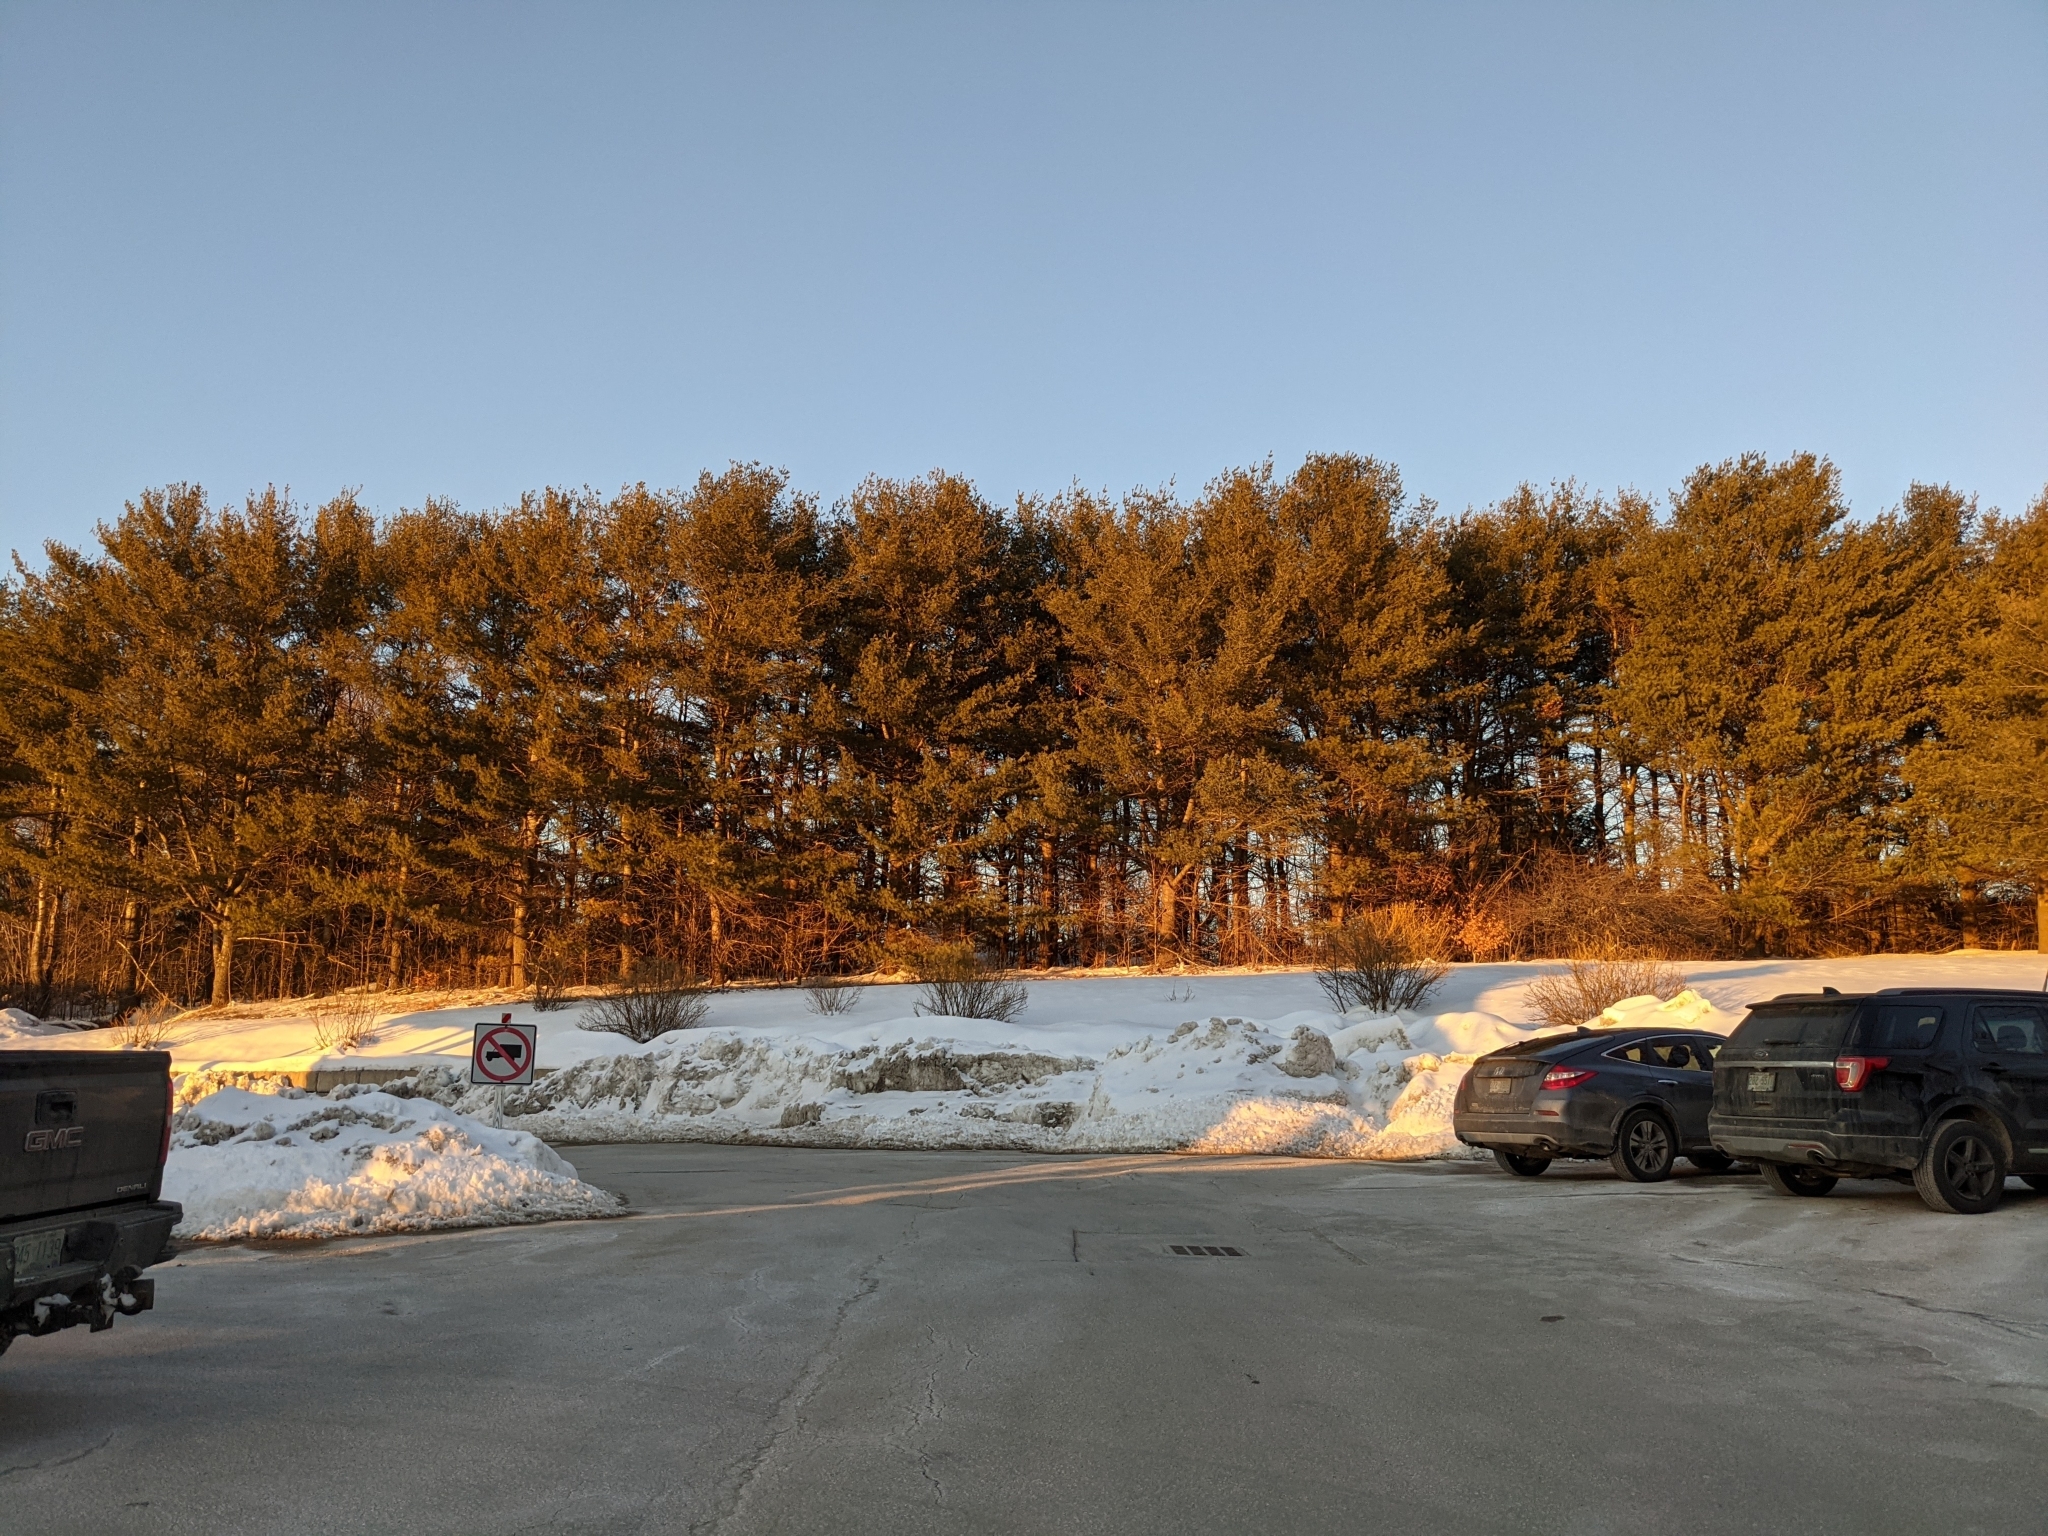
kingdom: Plantae
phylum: Tracheophyta
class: Pinopsida
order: Pinales
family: Pinaceae
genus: Pinus
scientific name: Pinus strobus
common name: Weymouth pine
